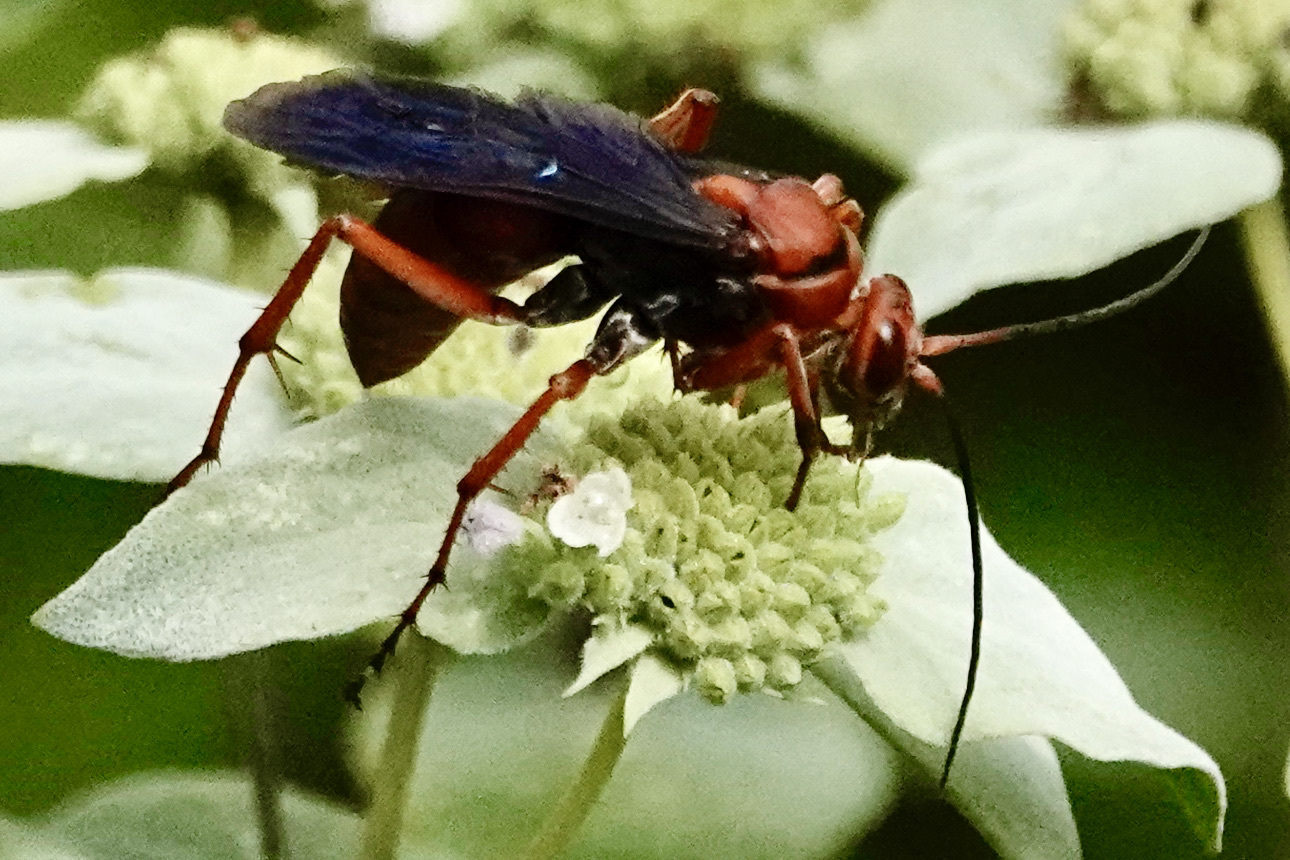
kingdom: Animalia
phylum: Arthropoda
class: Insecta
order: Hymenoptera
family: Pompilidae
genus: Tachypompilus
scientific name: Tachypompilus ferrugineus
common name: Rusty spider wasp
